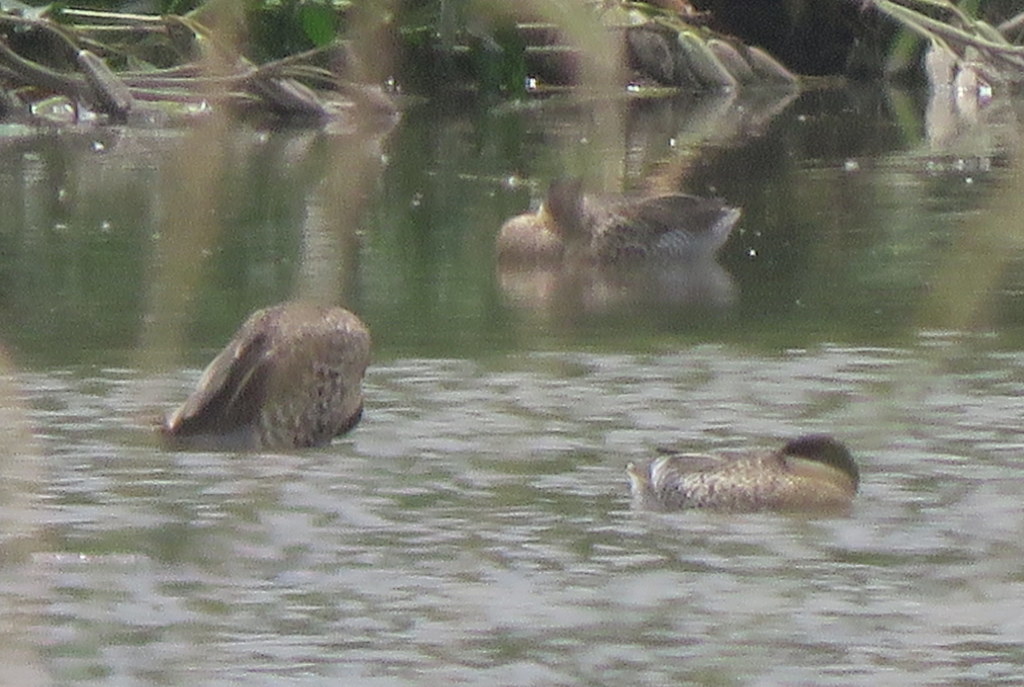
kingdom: Animalia
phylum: Chordata
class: Aves
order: Anseriformes
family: Anatidae
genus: Spatula
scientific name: Spatula versicolor
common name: Silver teal
